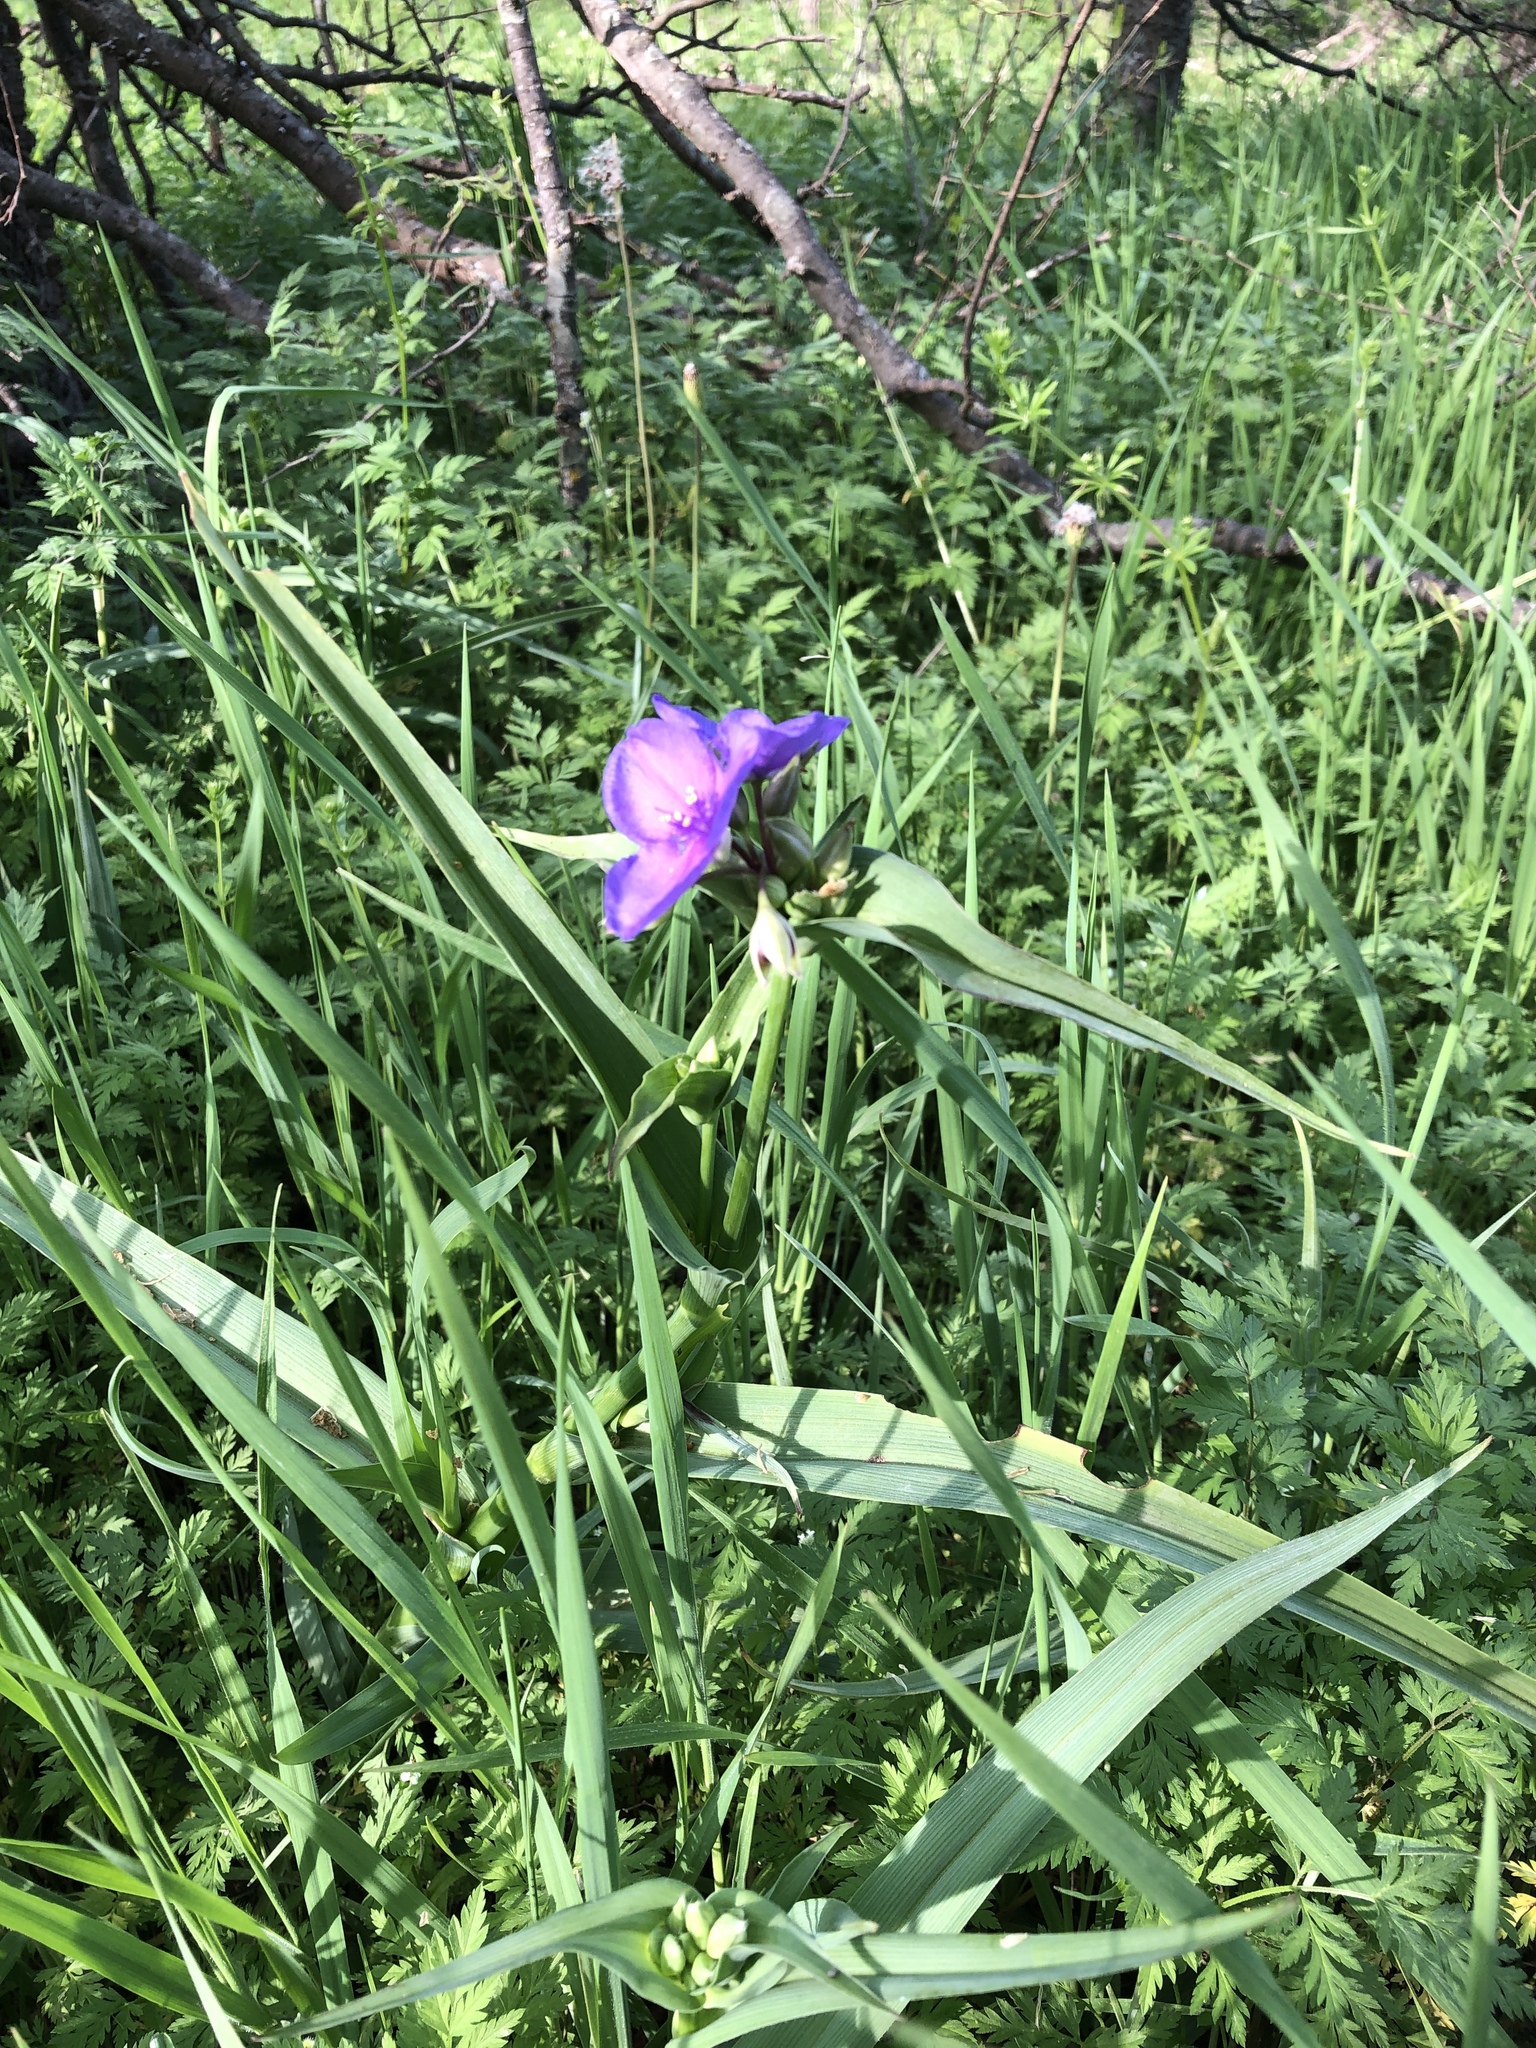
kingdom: Plantae
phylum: Tracheophyta
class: Liliopsida
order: Commelinales
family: Commelinaceae
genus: Tradescantia
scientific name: Tradescantia ohiensis
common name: Ohio spiderwort
